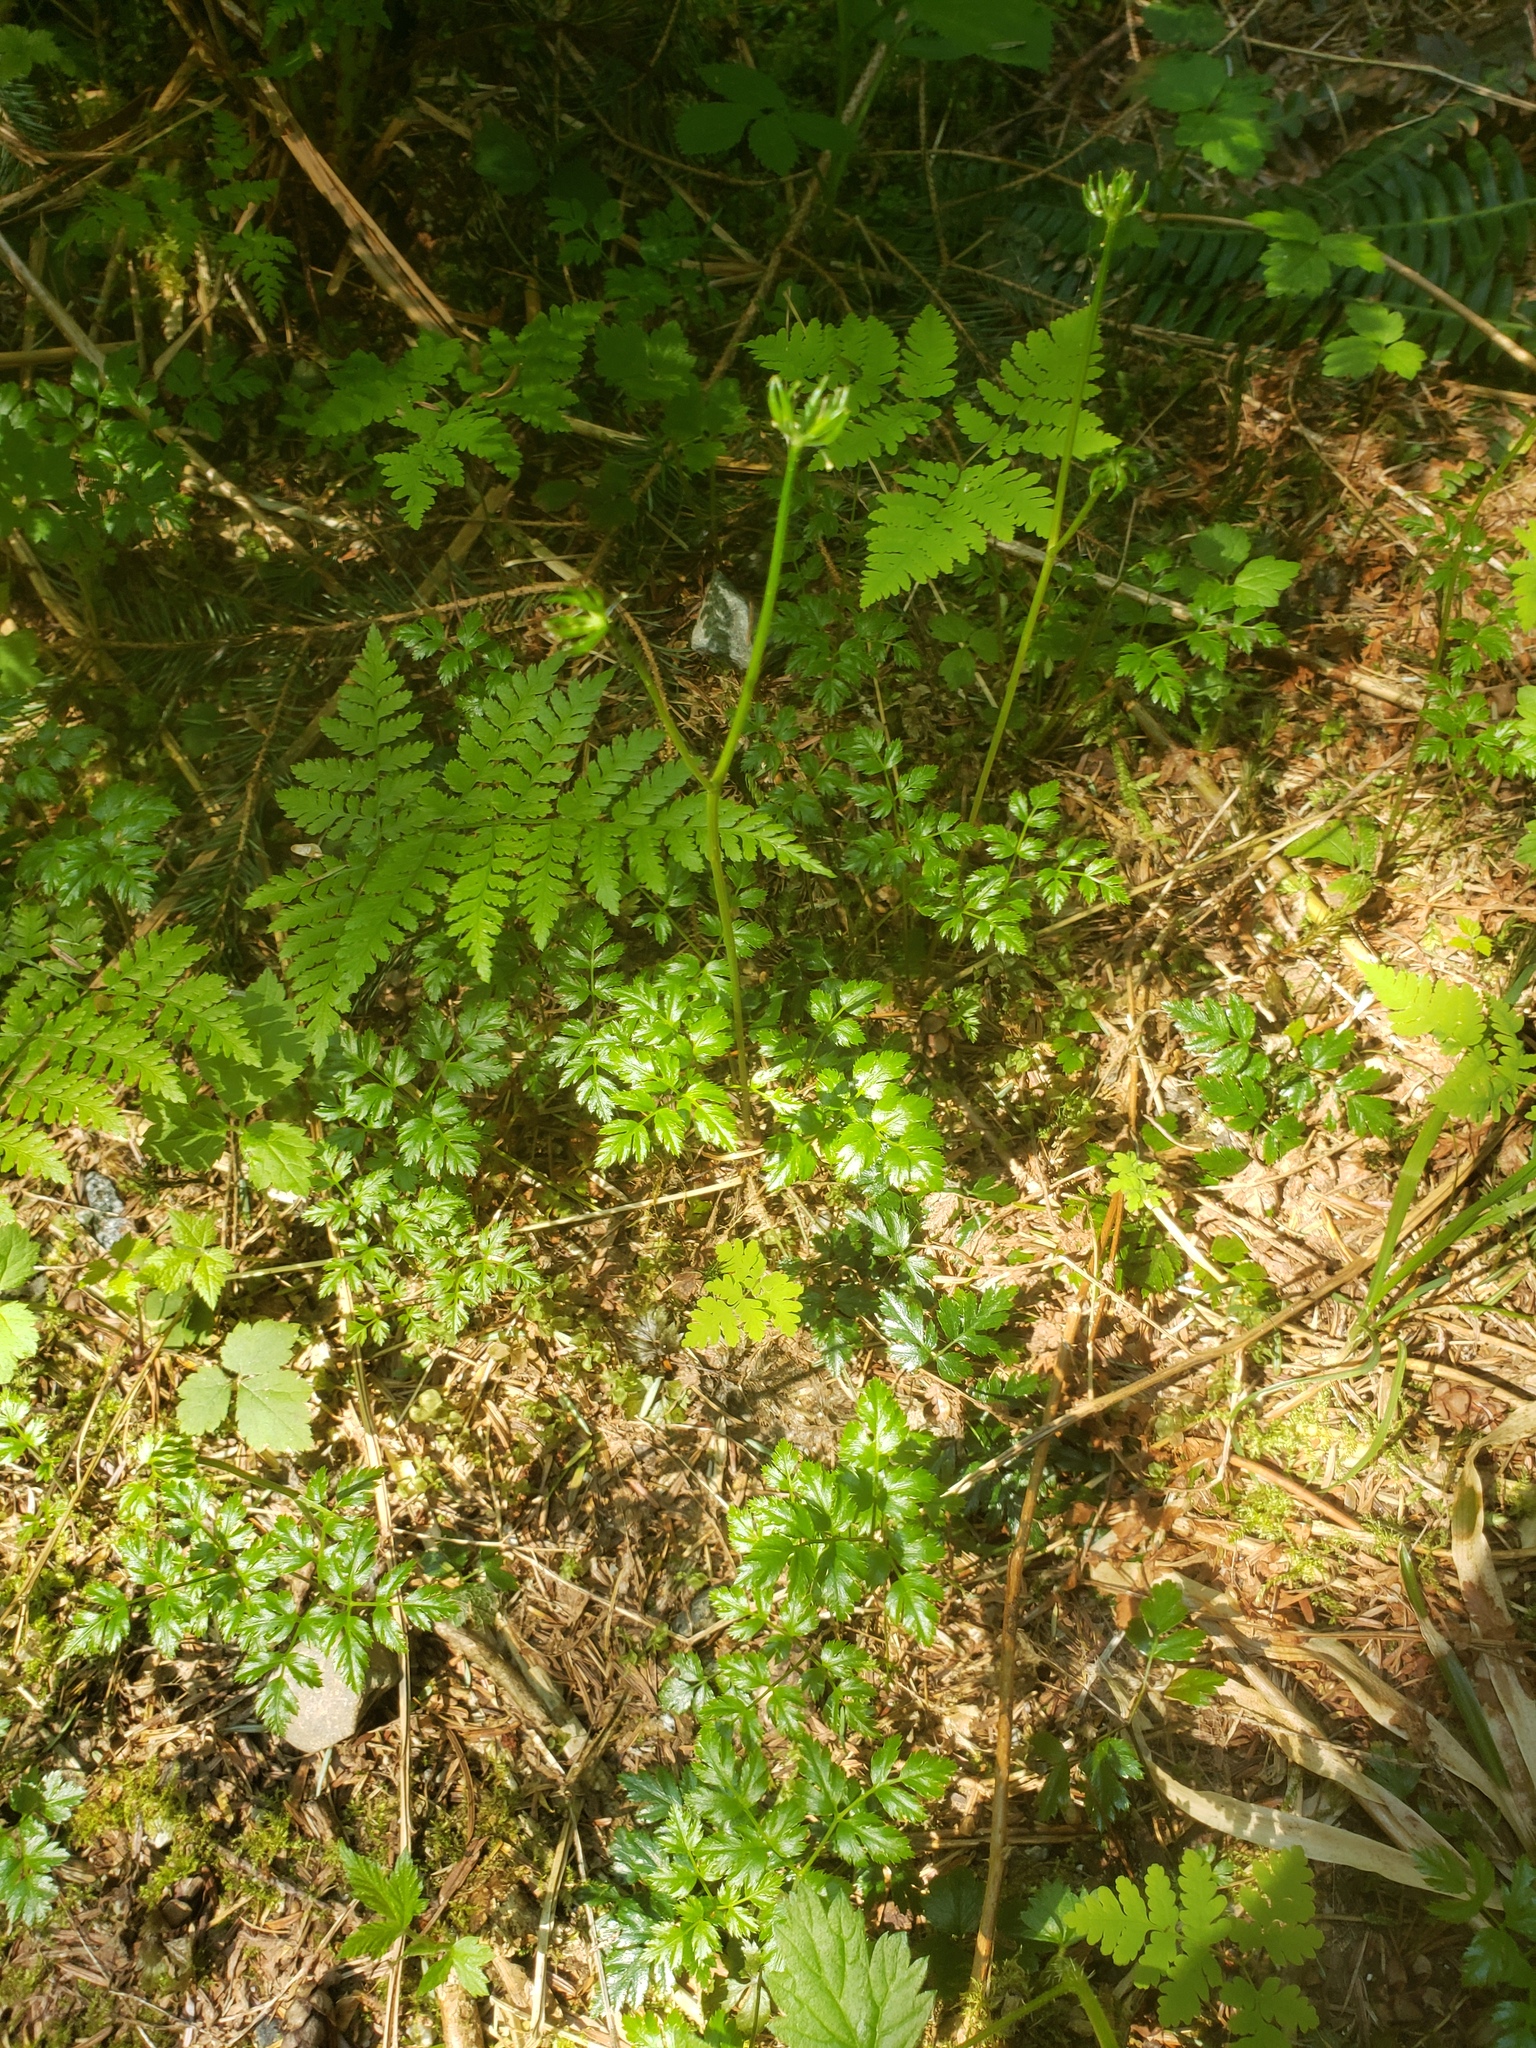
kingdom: Plantae
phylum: Tracheophyta
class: Magnoliopsida
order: Ranunculales
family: Ranunculaceae
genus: Coptis
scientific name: Coptis aspleniifolia
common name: Fern-leaved goldthread
